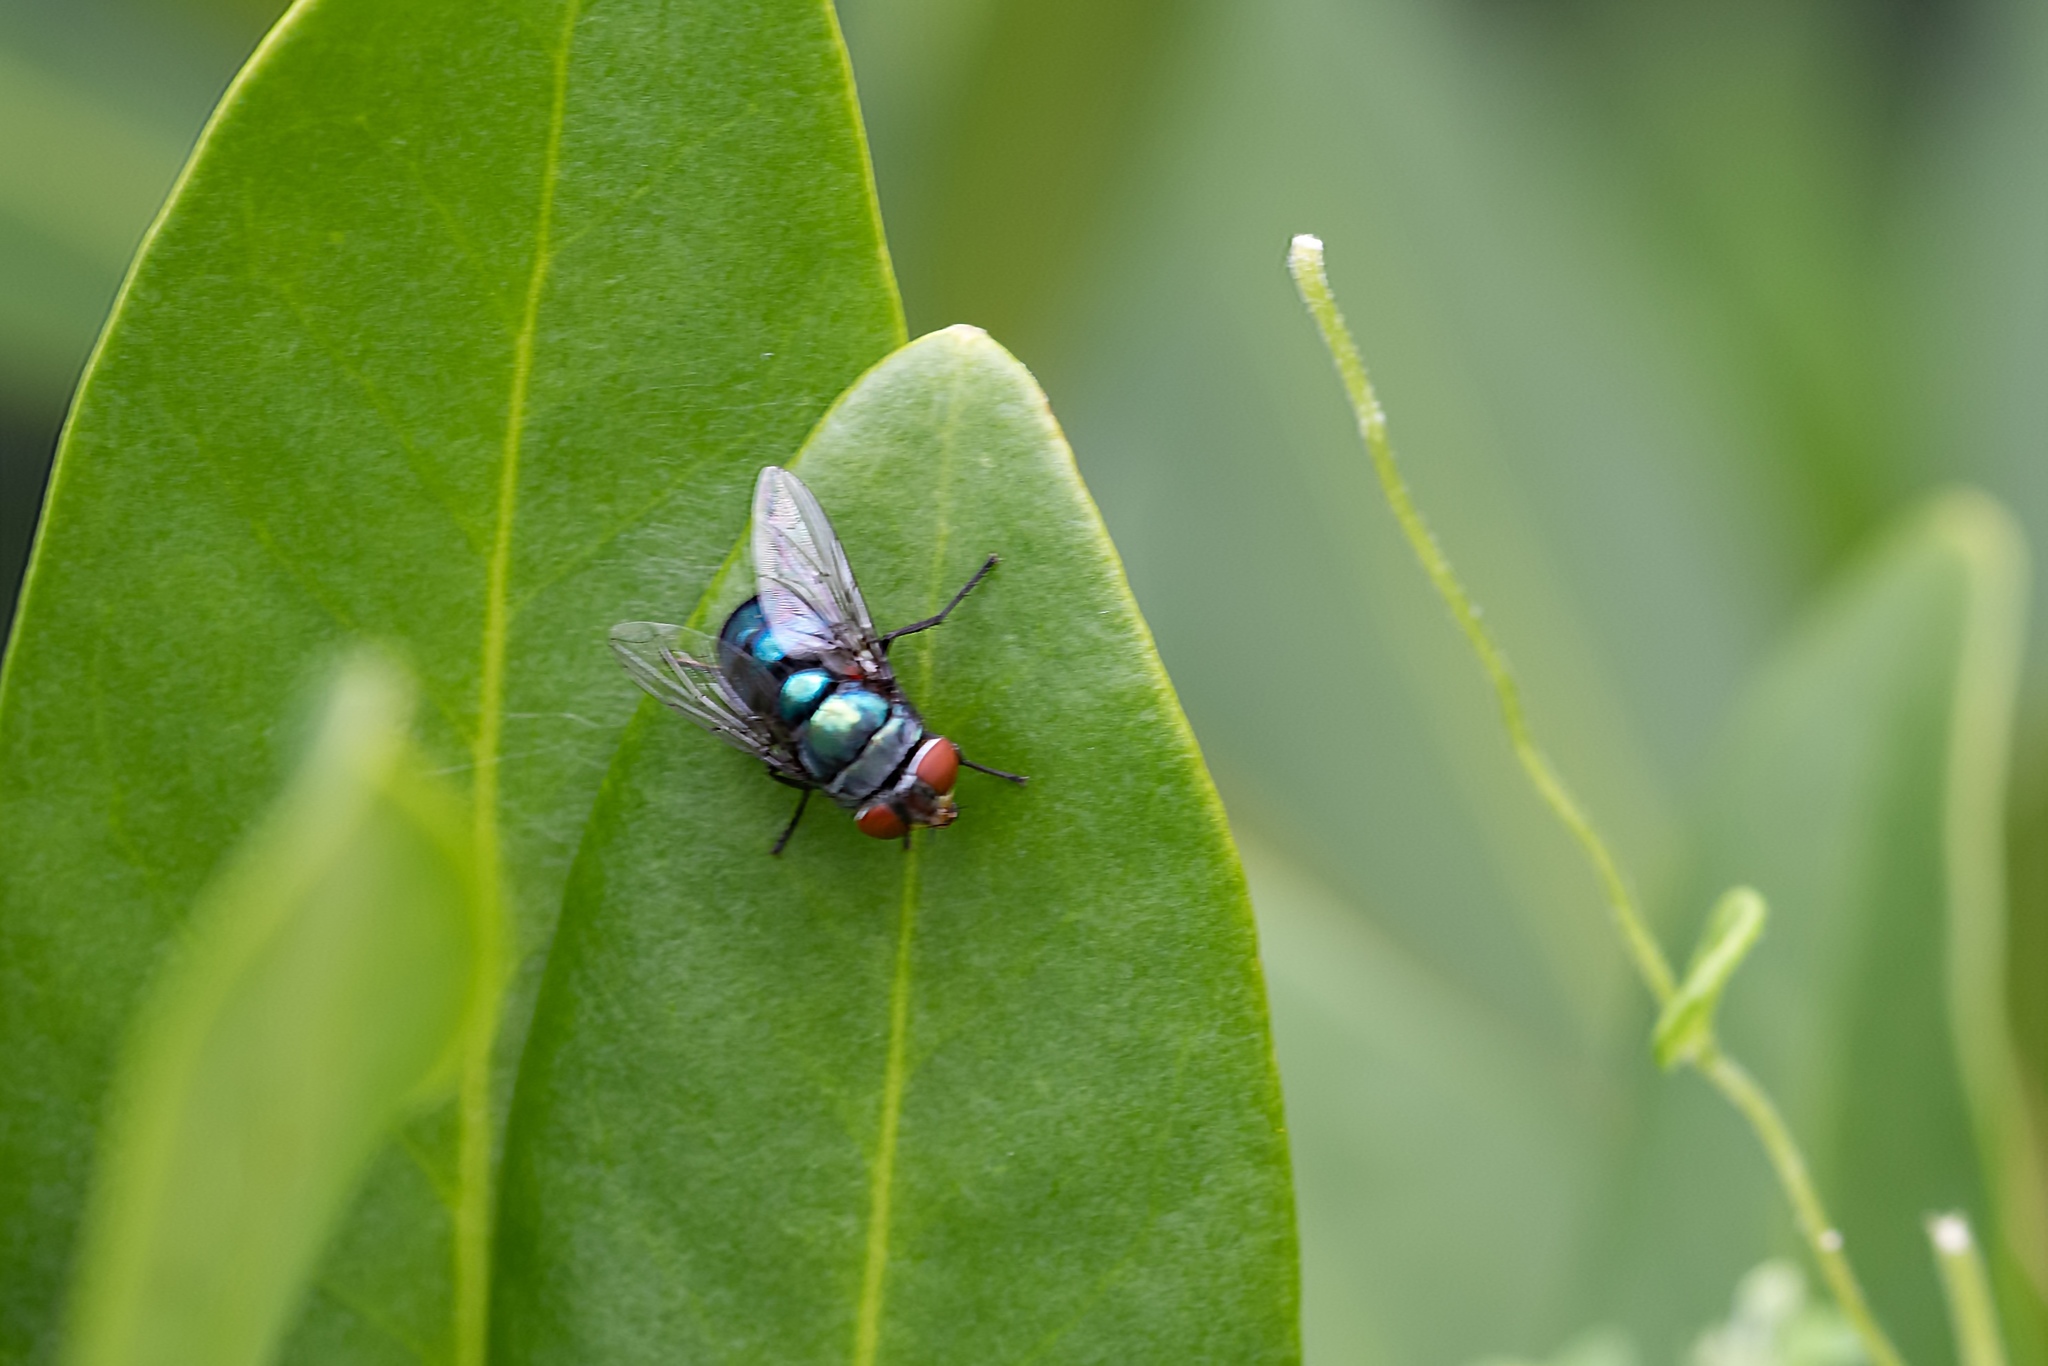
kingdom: Animalia
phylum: Arthropoda
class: Insecta
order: Diptera
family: Calliphoridae
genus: Chrysomya
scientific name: Chrysomya megacephala
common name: Blow fly
